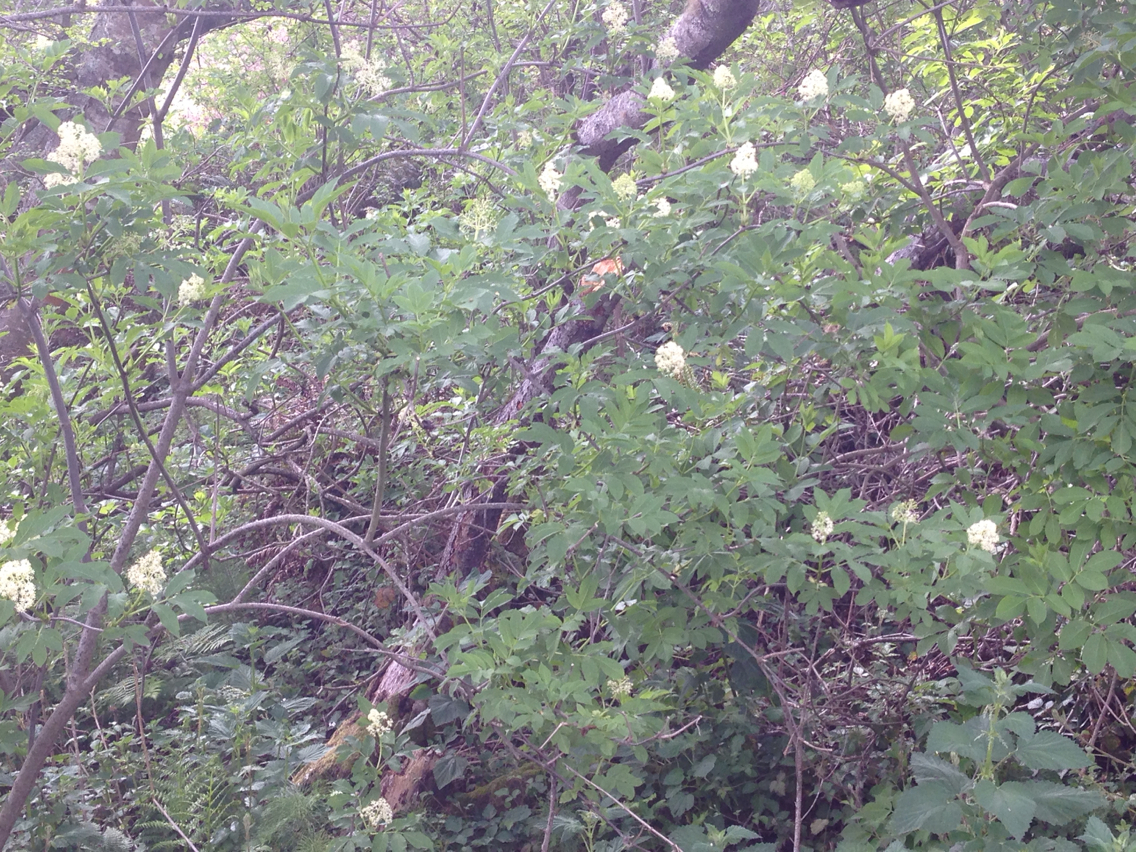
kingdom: Plantae
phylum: Tracheophyta
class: Magnoliopsida
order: Dipsacales
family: Viburnaceae
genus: Sambucus
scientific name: Sambucus racemosa
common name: Red-berried elder
